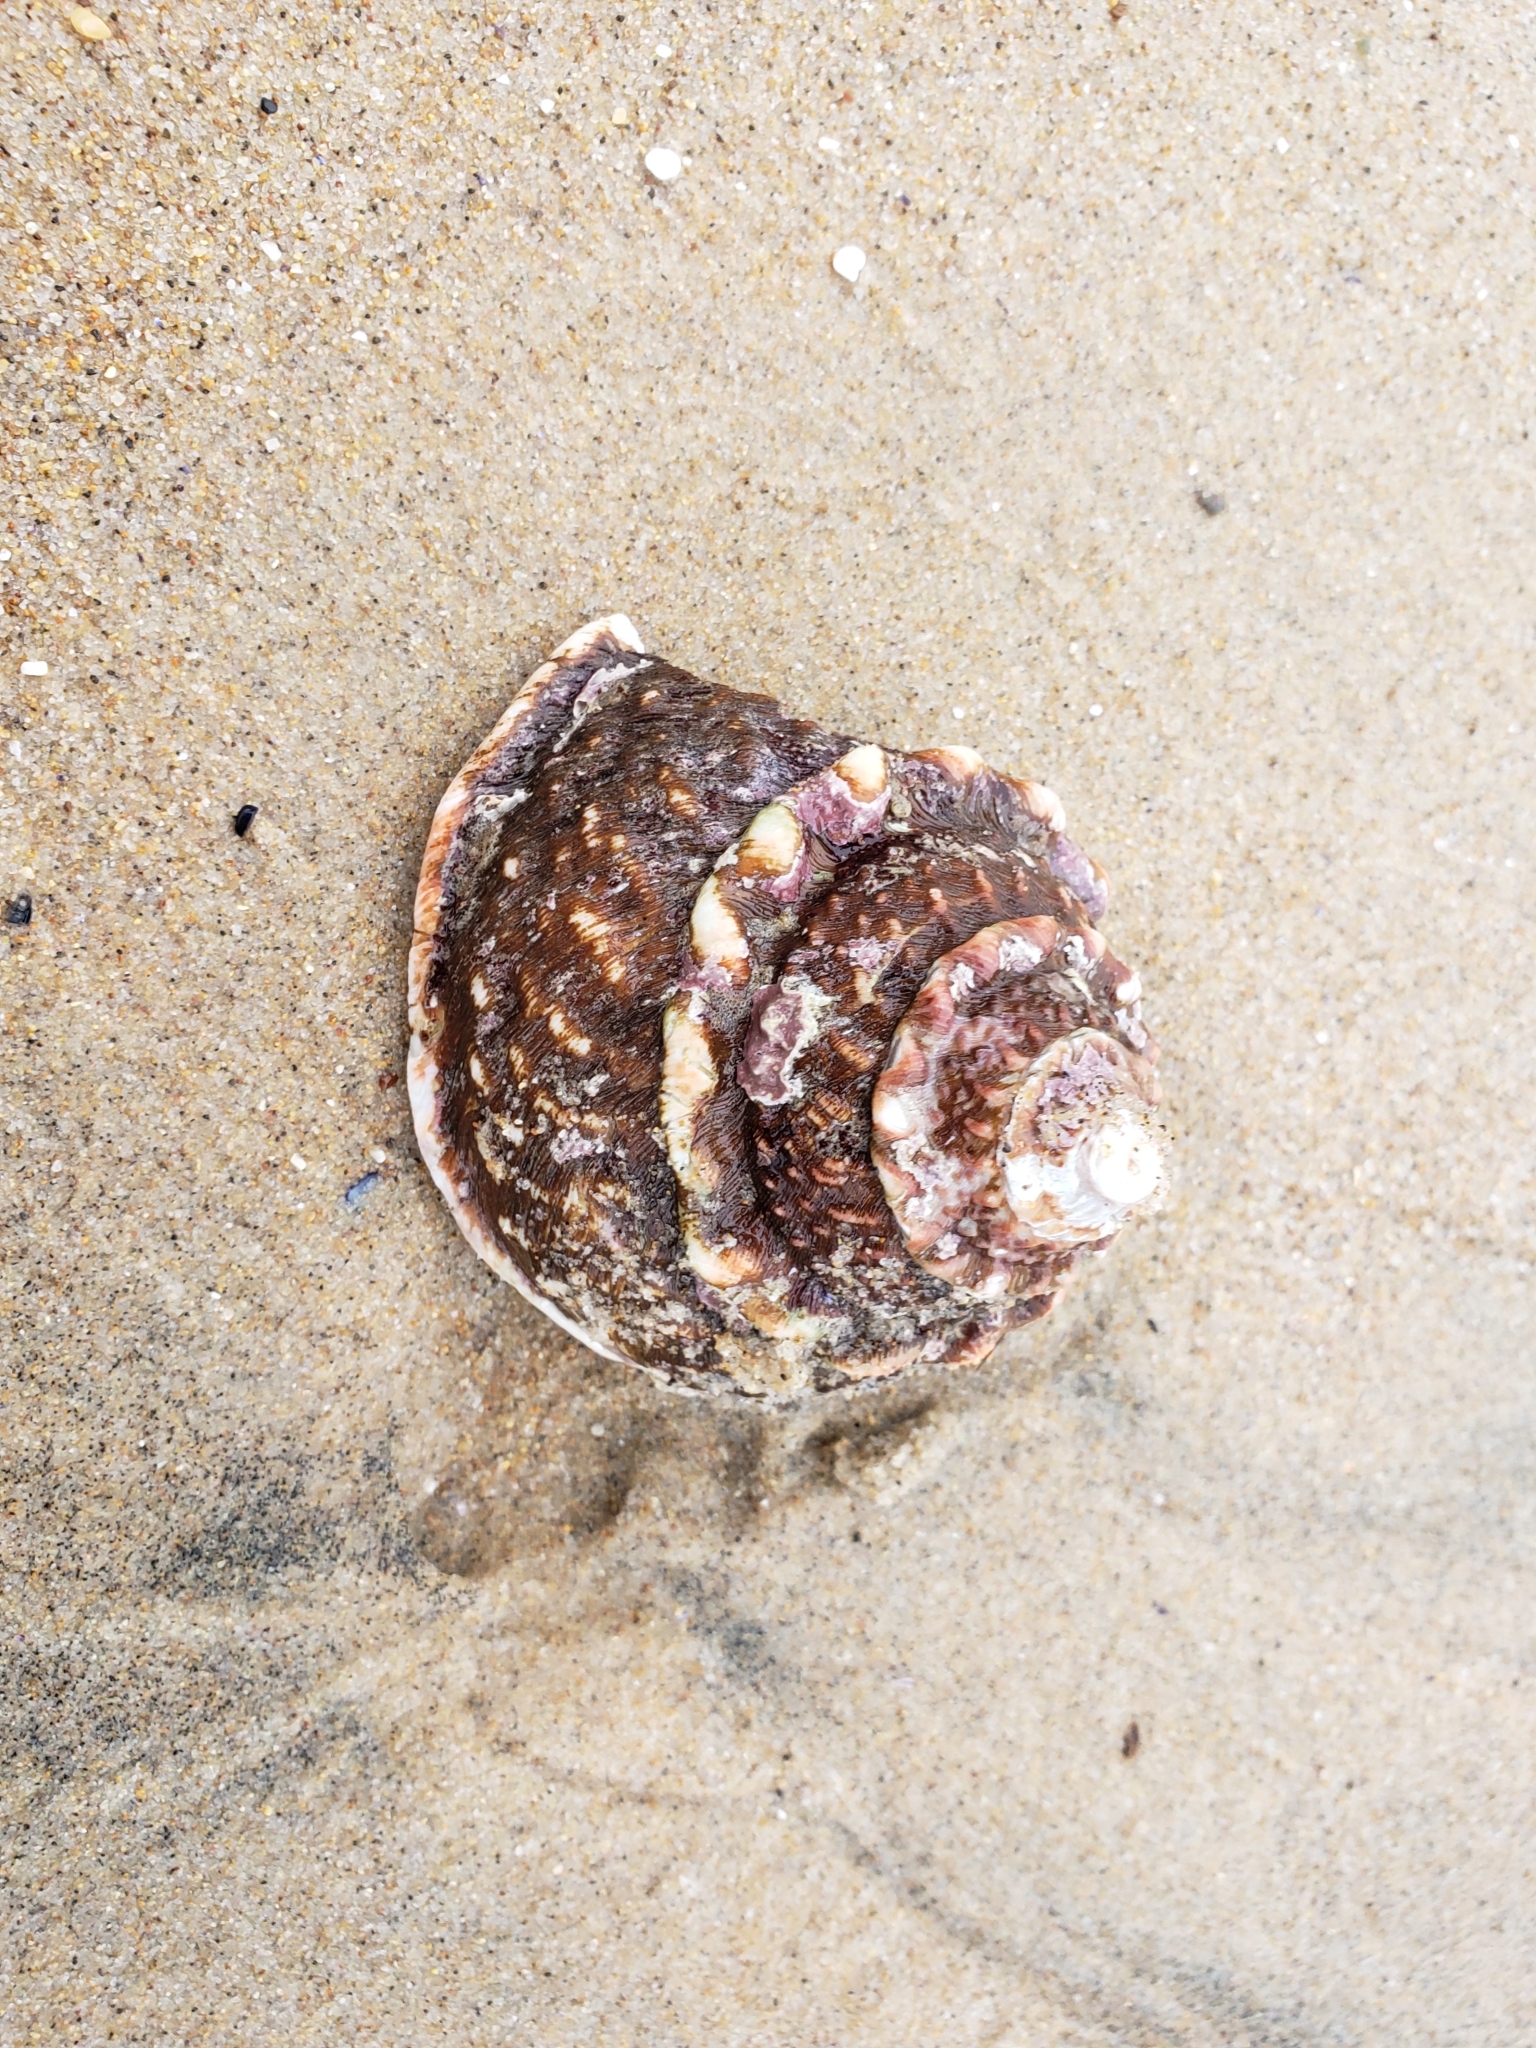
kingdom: Animalia
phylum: Mollusca
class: Gastropoda
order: Trochida
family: Turbinidae
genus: Megastraea
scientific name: Megastraea undosa
